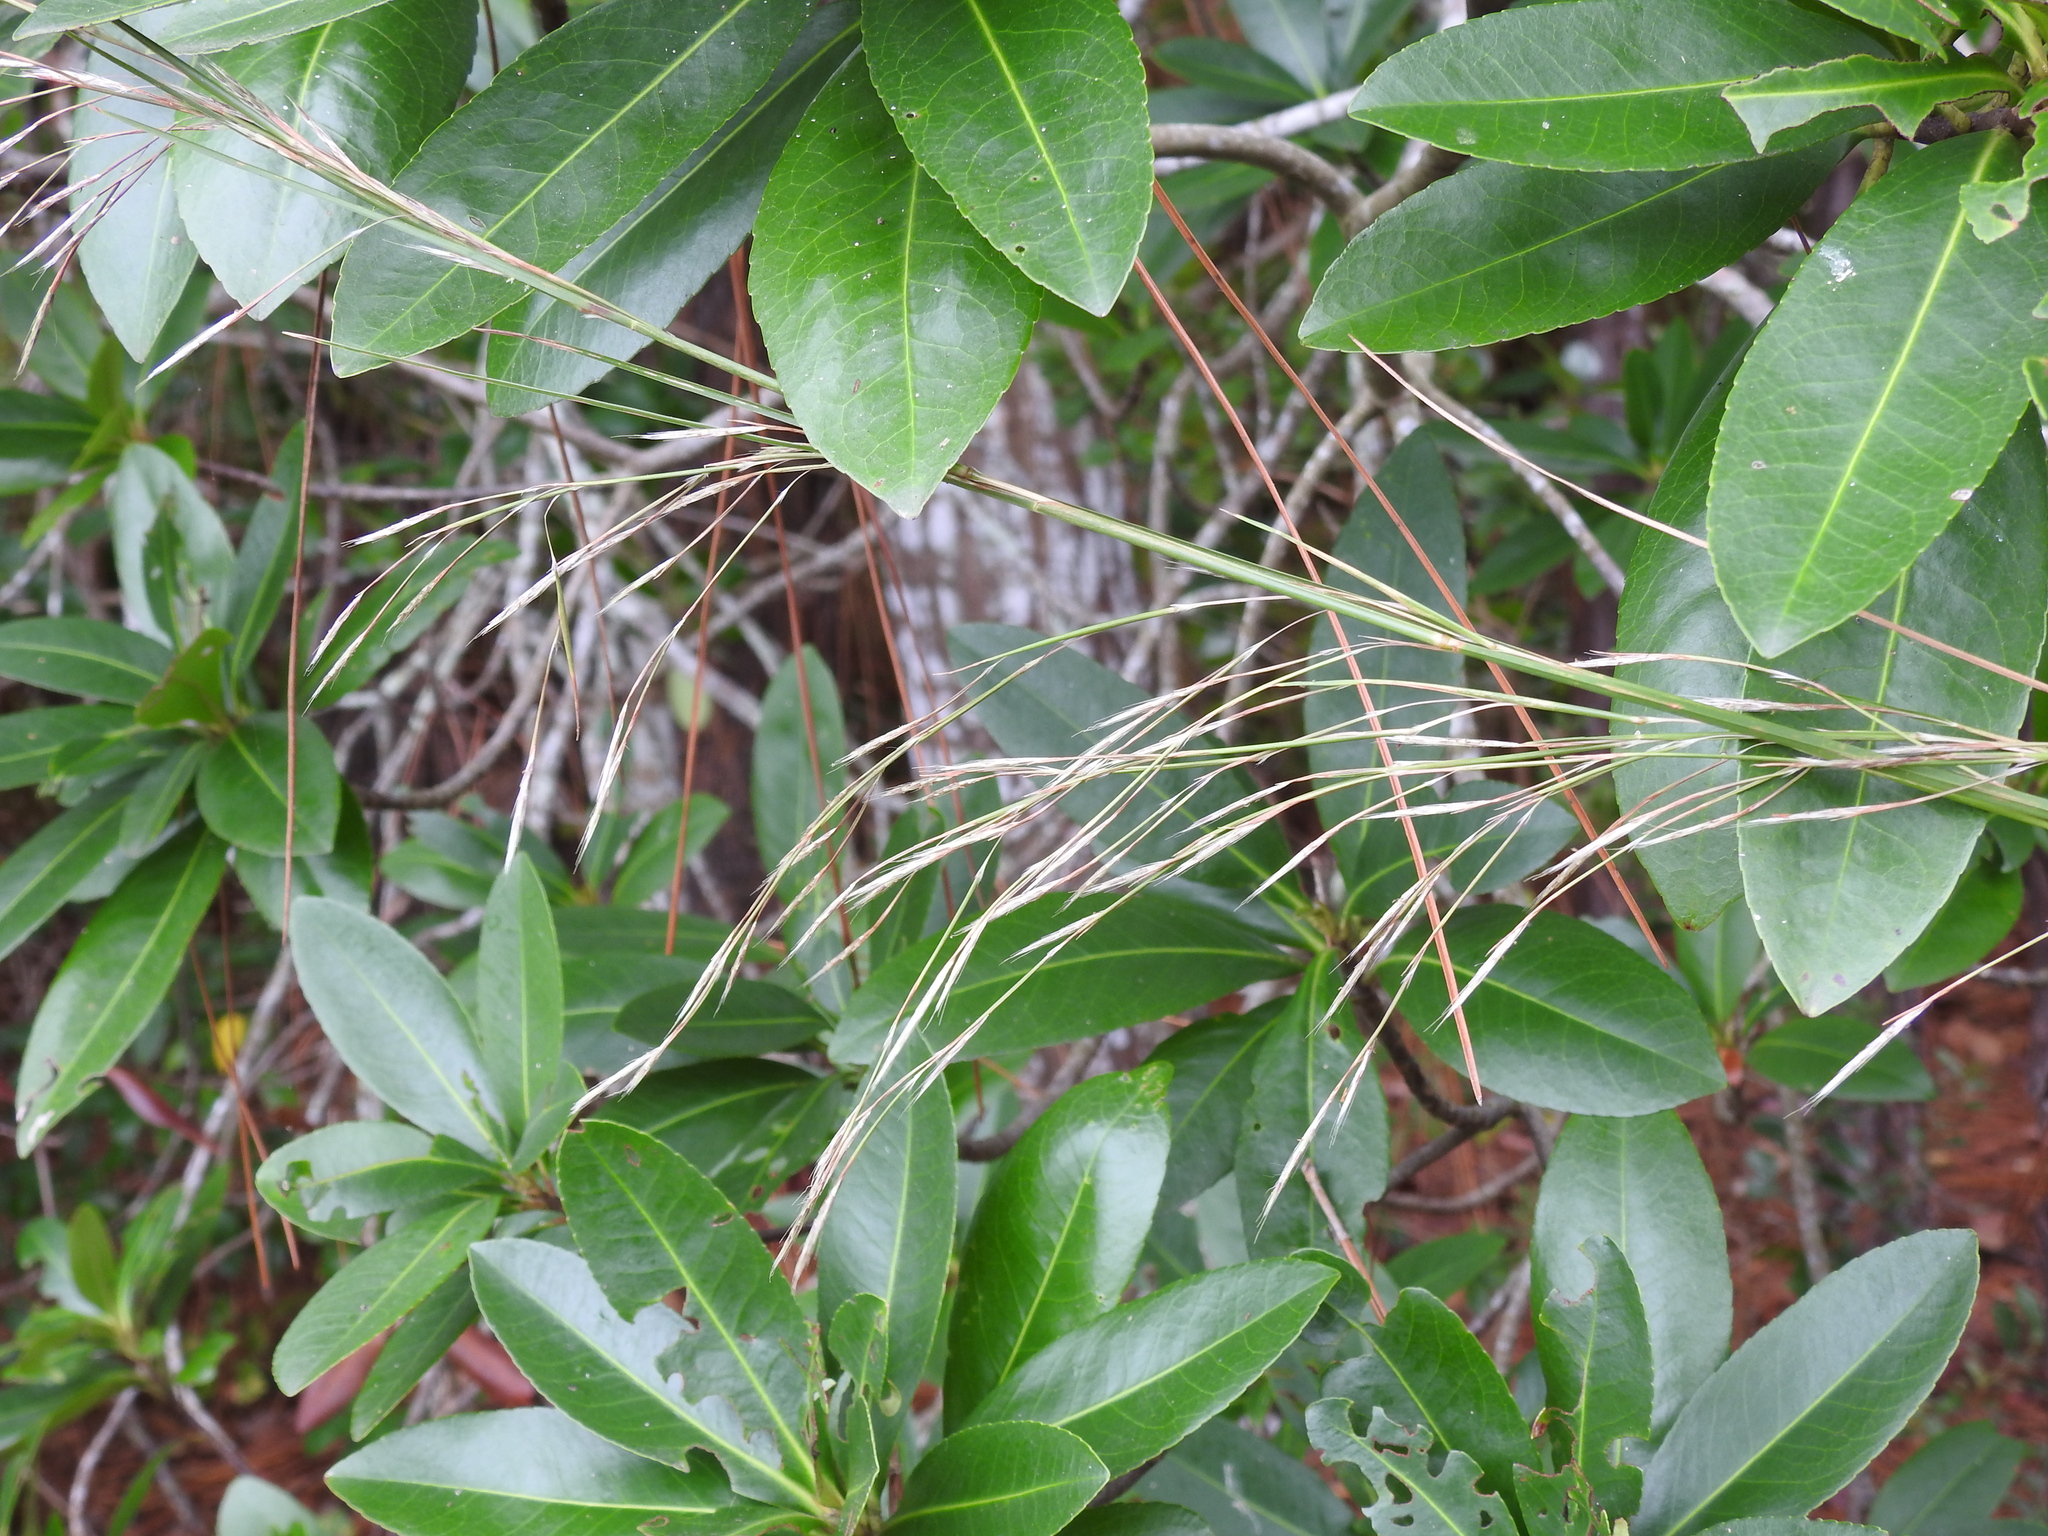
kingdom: Plantae
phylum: Tracheophyta
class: Liliopsida
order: Poales
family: Poaceae
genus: Andropogon
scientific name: Andropogon brachystachyus
